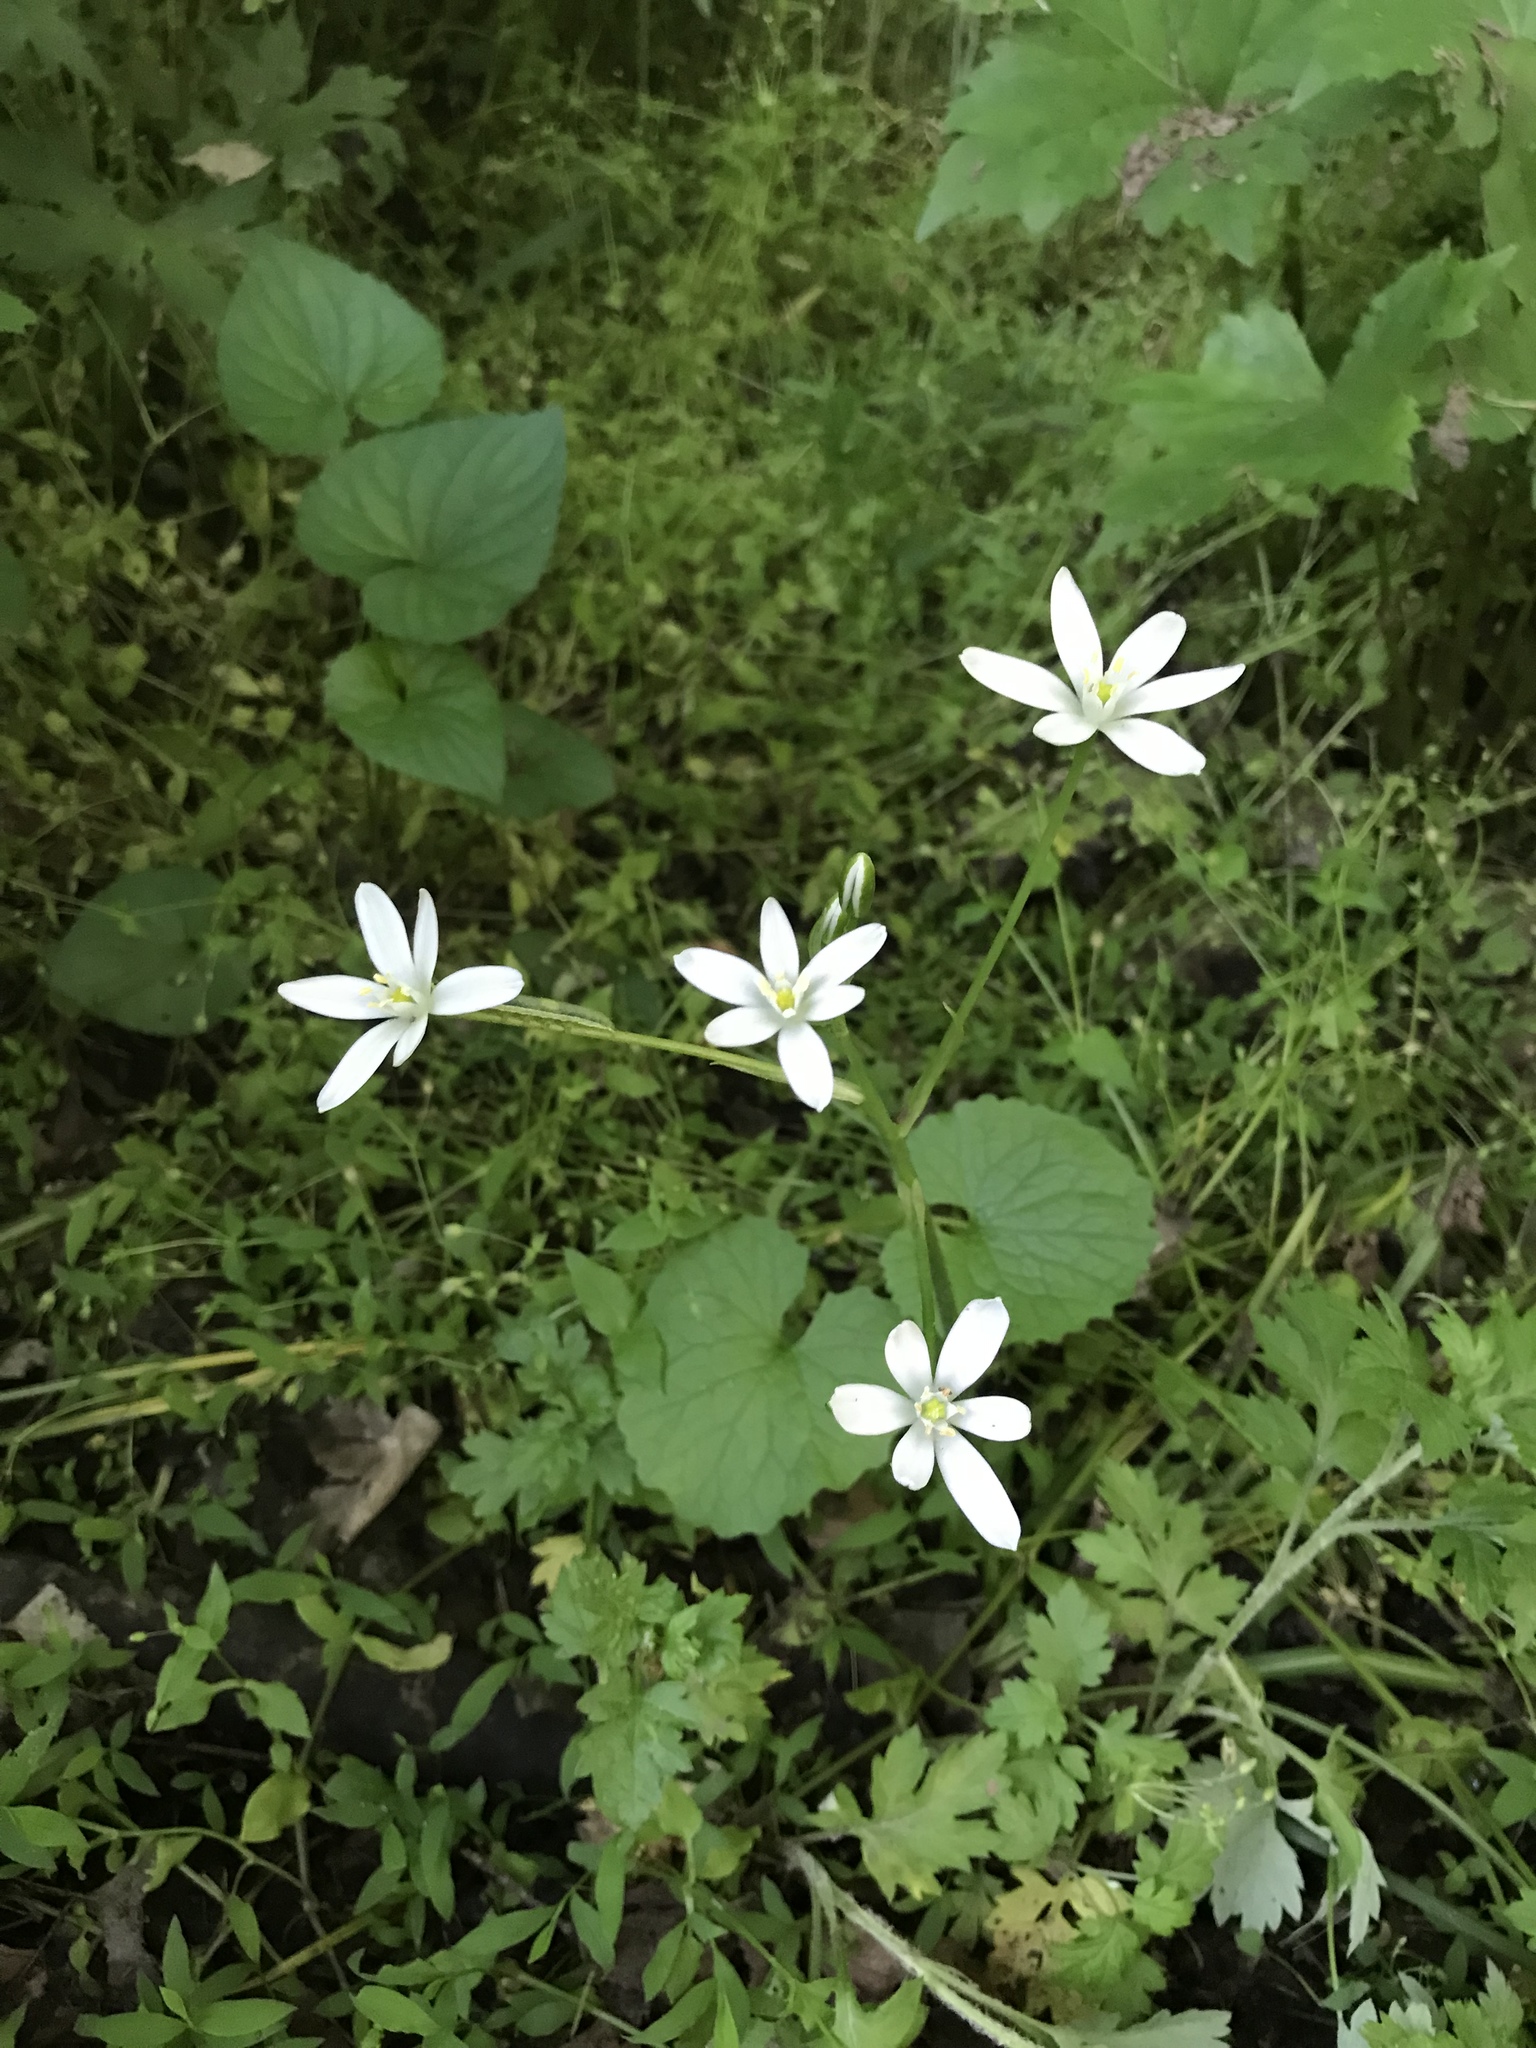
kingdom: Plantae
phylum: Tracheophyta
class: Liliopsida
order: Asparagales
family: Asparagaceae
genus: Ornithogalum
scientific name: Ornithogalum umbellatum
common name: Garden star-of-bethlehem
